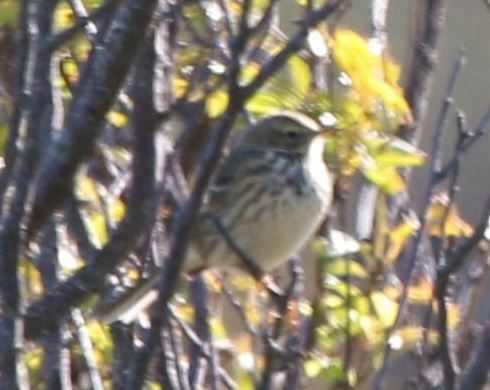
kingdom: Animalia
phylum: Chordata
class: Aves
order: Passeriformes
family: Motacillidae
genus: Anthus
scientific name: Anthus pratensis
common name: Meadow pipit
